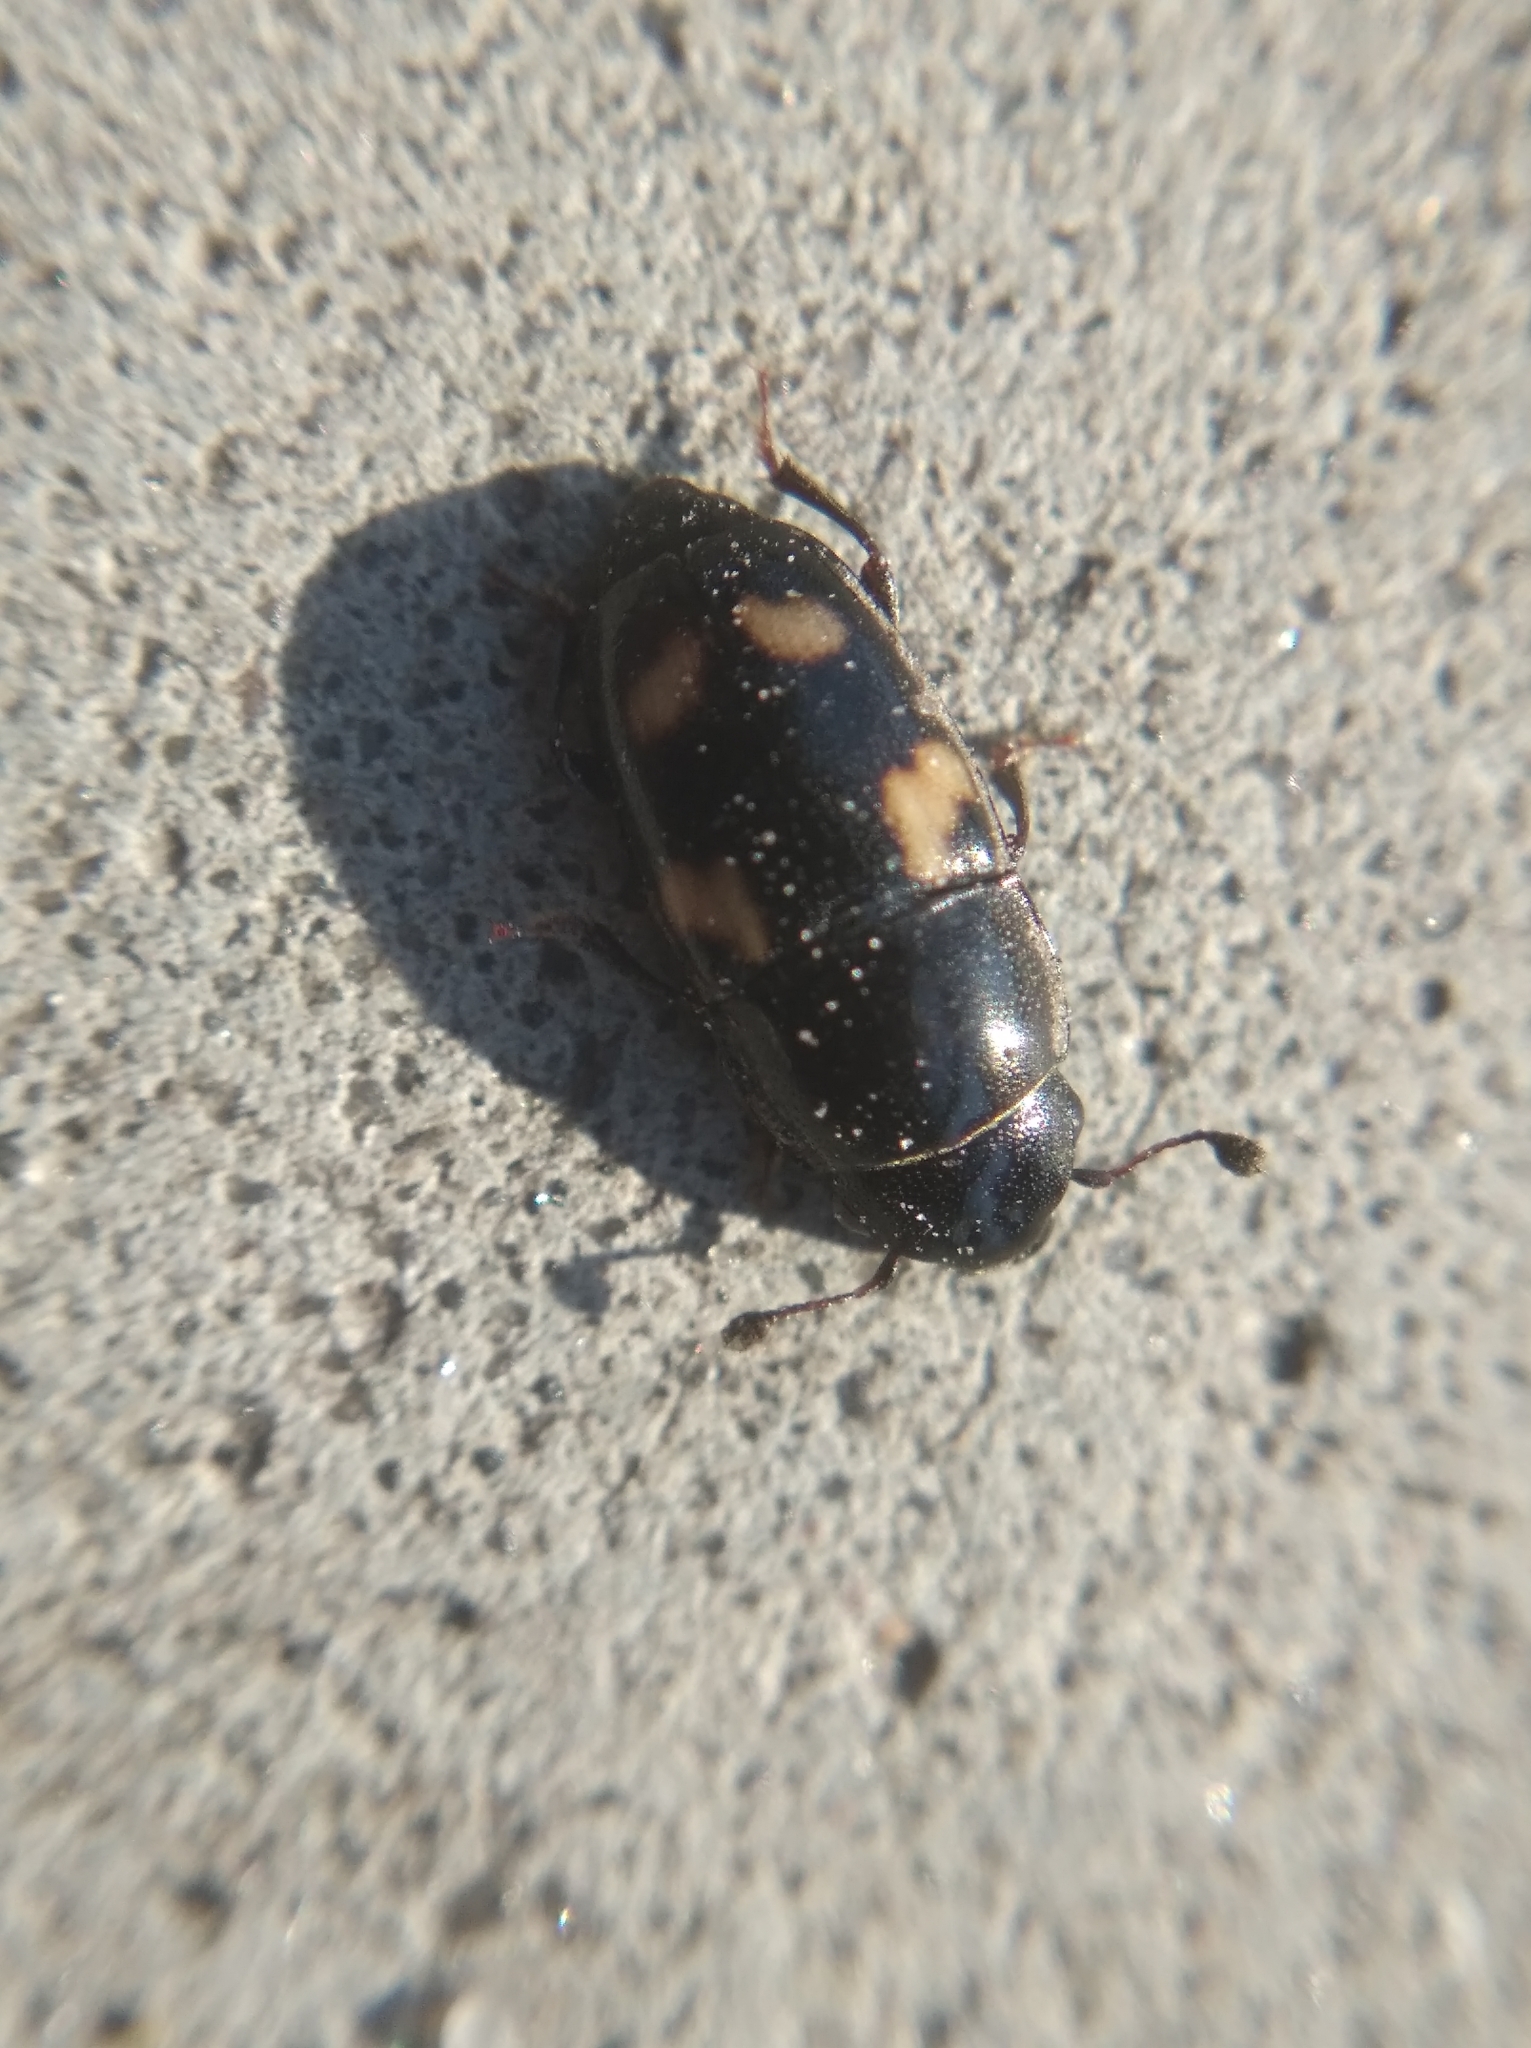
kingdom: Animalia
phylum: Arthropoda
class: Insecta
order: Coleoptera
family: Nitidulidae
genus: Glischrochilus
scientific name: Glischrochilus quadrisignatus
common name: Picnic beetle
